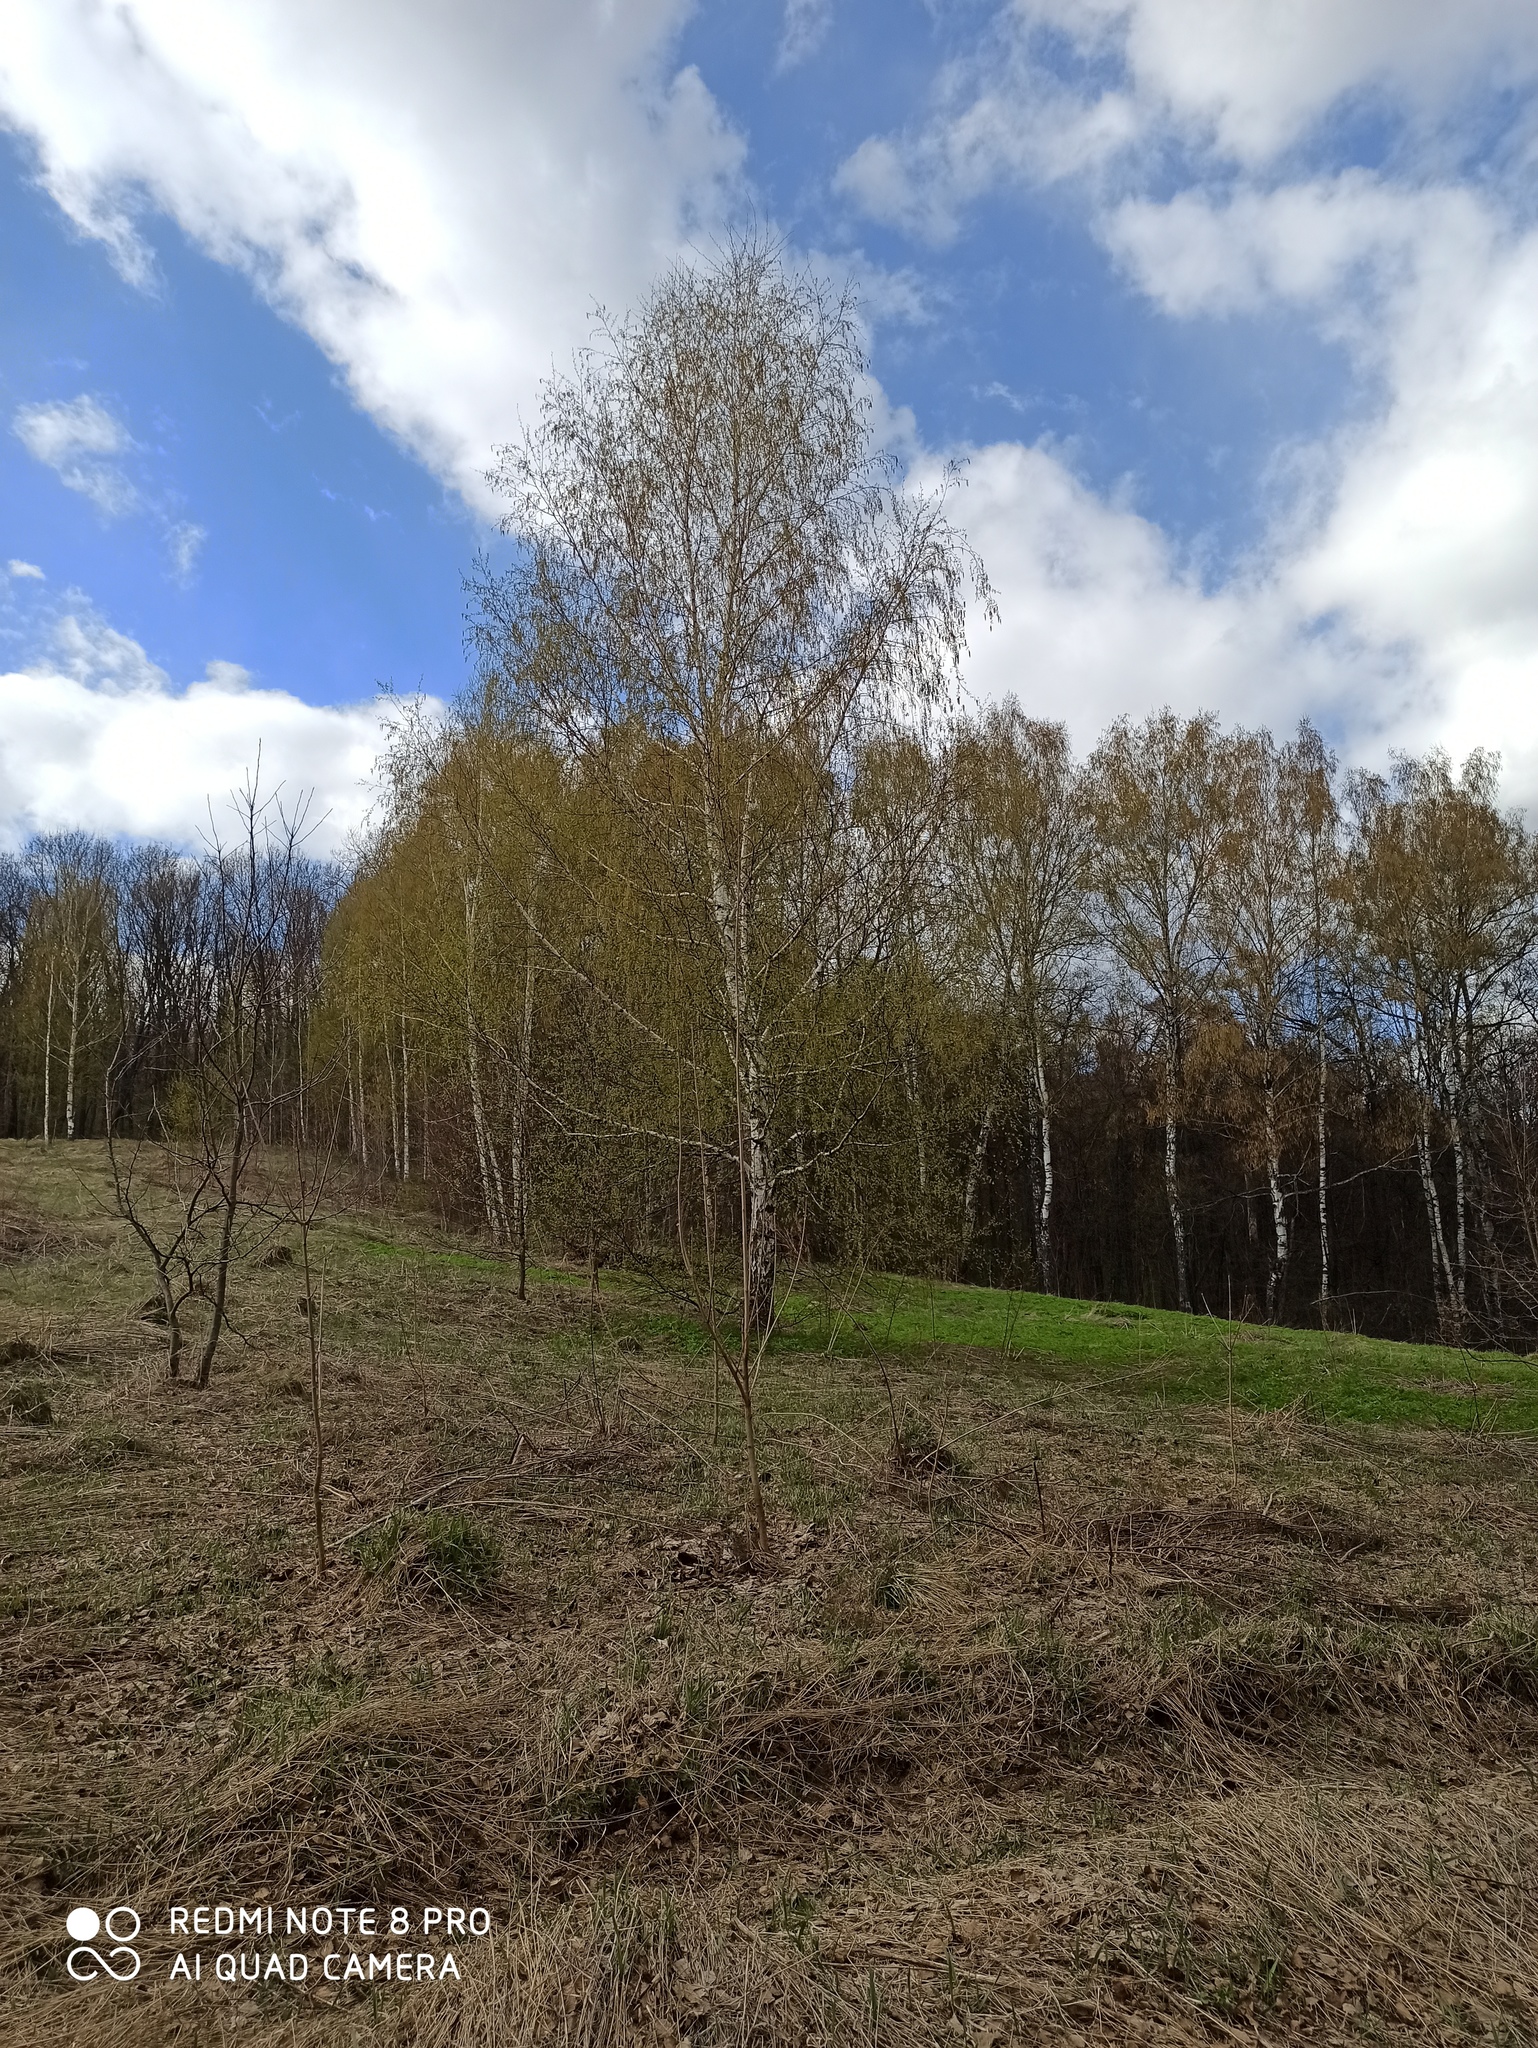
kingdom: Plantae
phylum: Tracheophyta
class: Magnoliopsida
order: Fagales
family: Betulaceae
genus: Betula
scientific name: Betula pendula
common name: Silver birch
